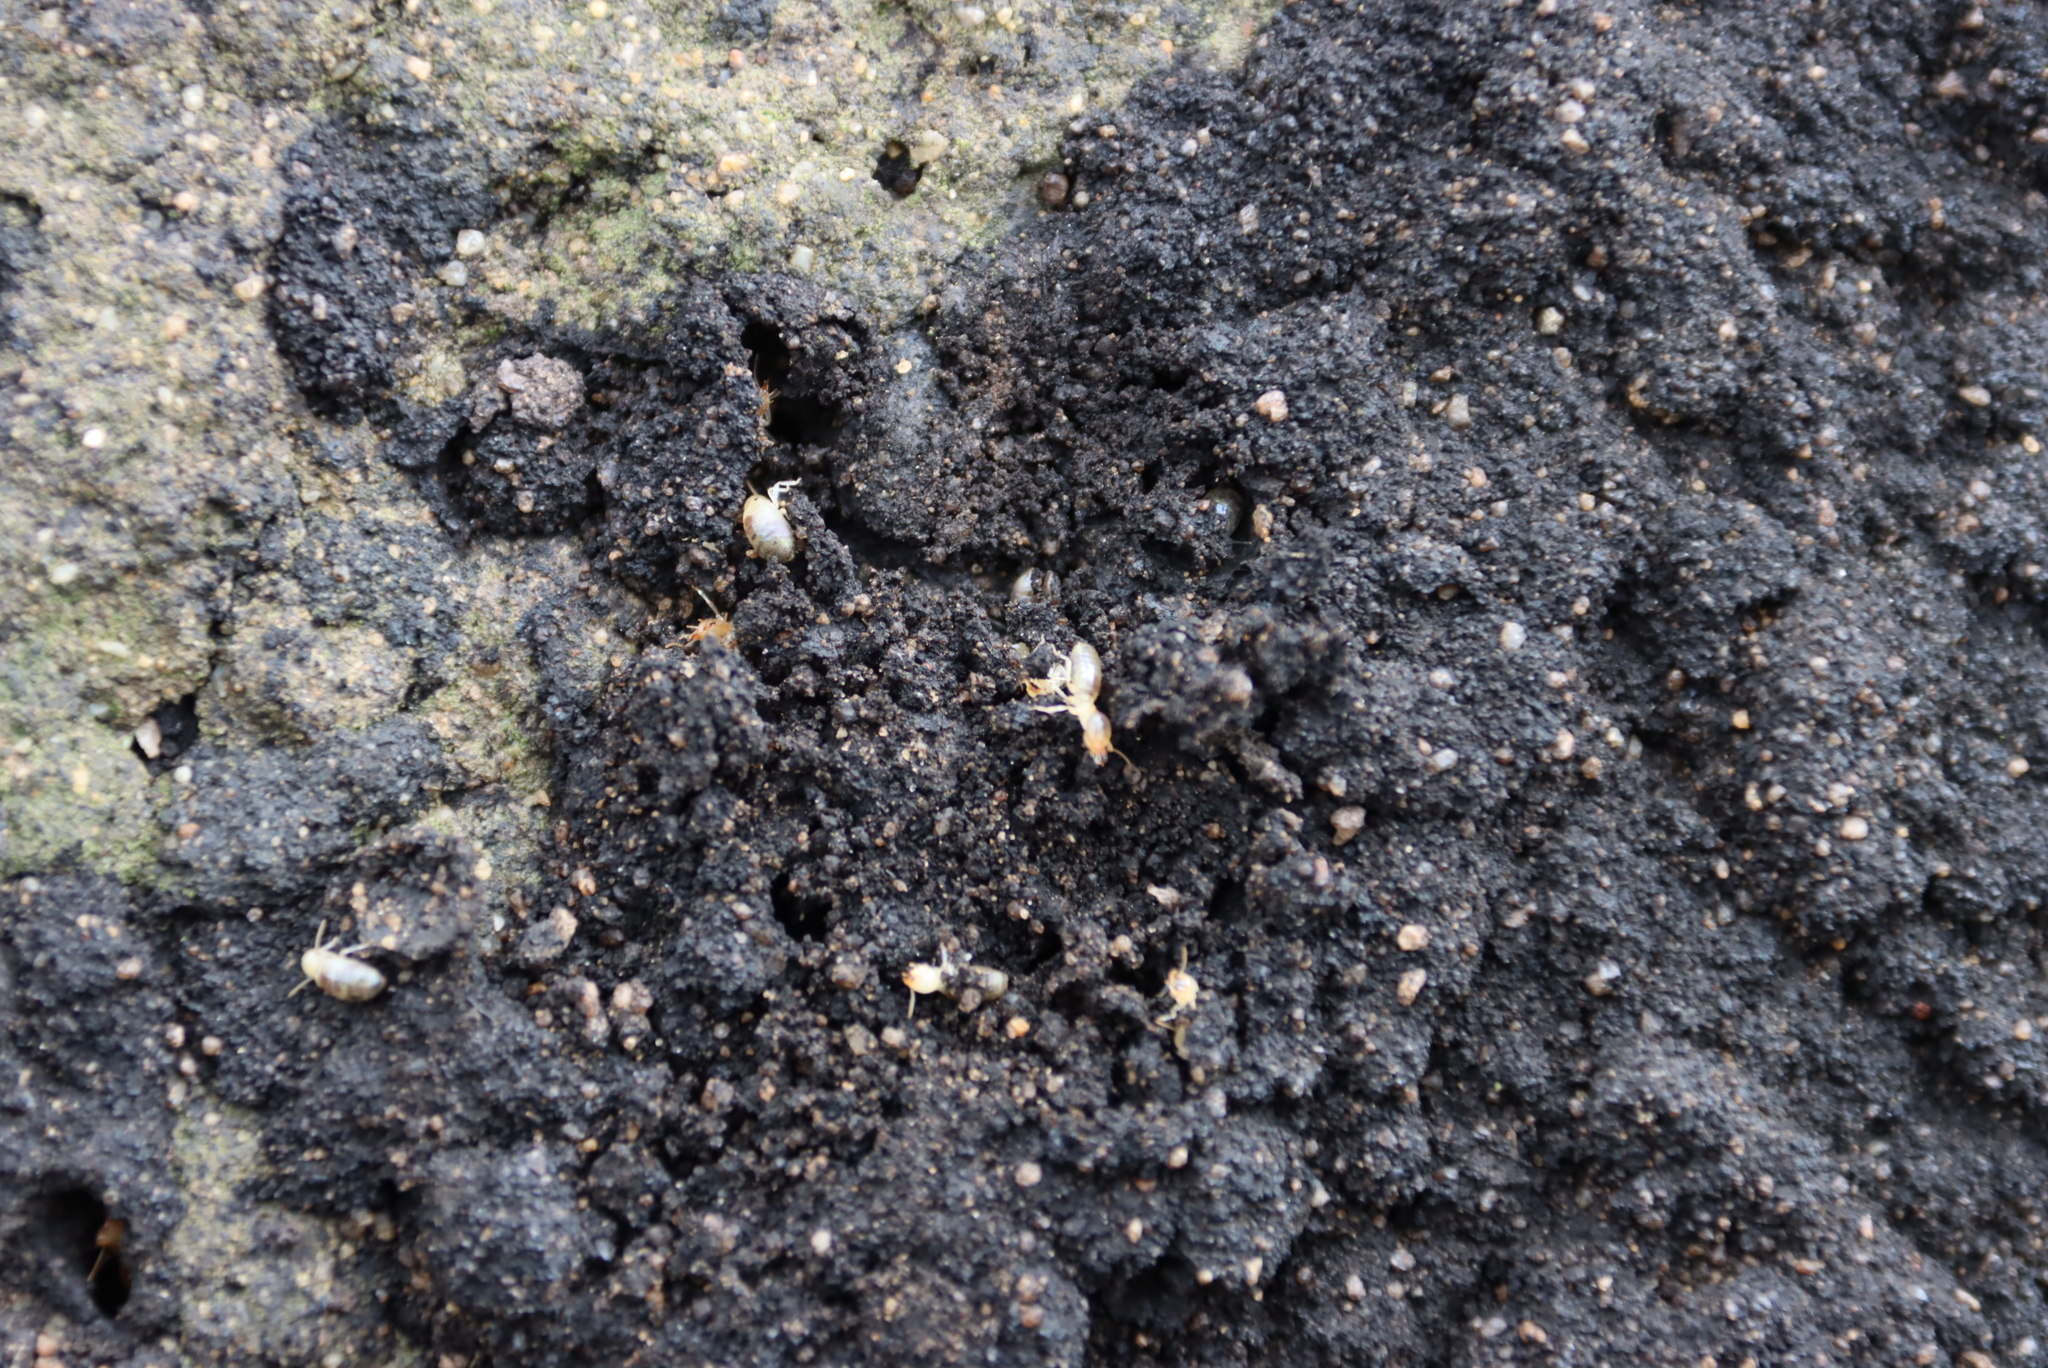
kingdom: Animalia
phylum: Arthropoda
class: Insecta
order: Blattodea
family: Termitidae
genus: Amitermes
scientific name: Amitermes hastatus
